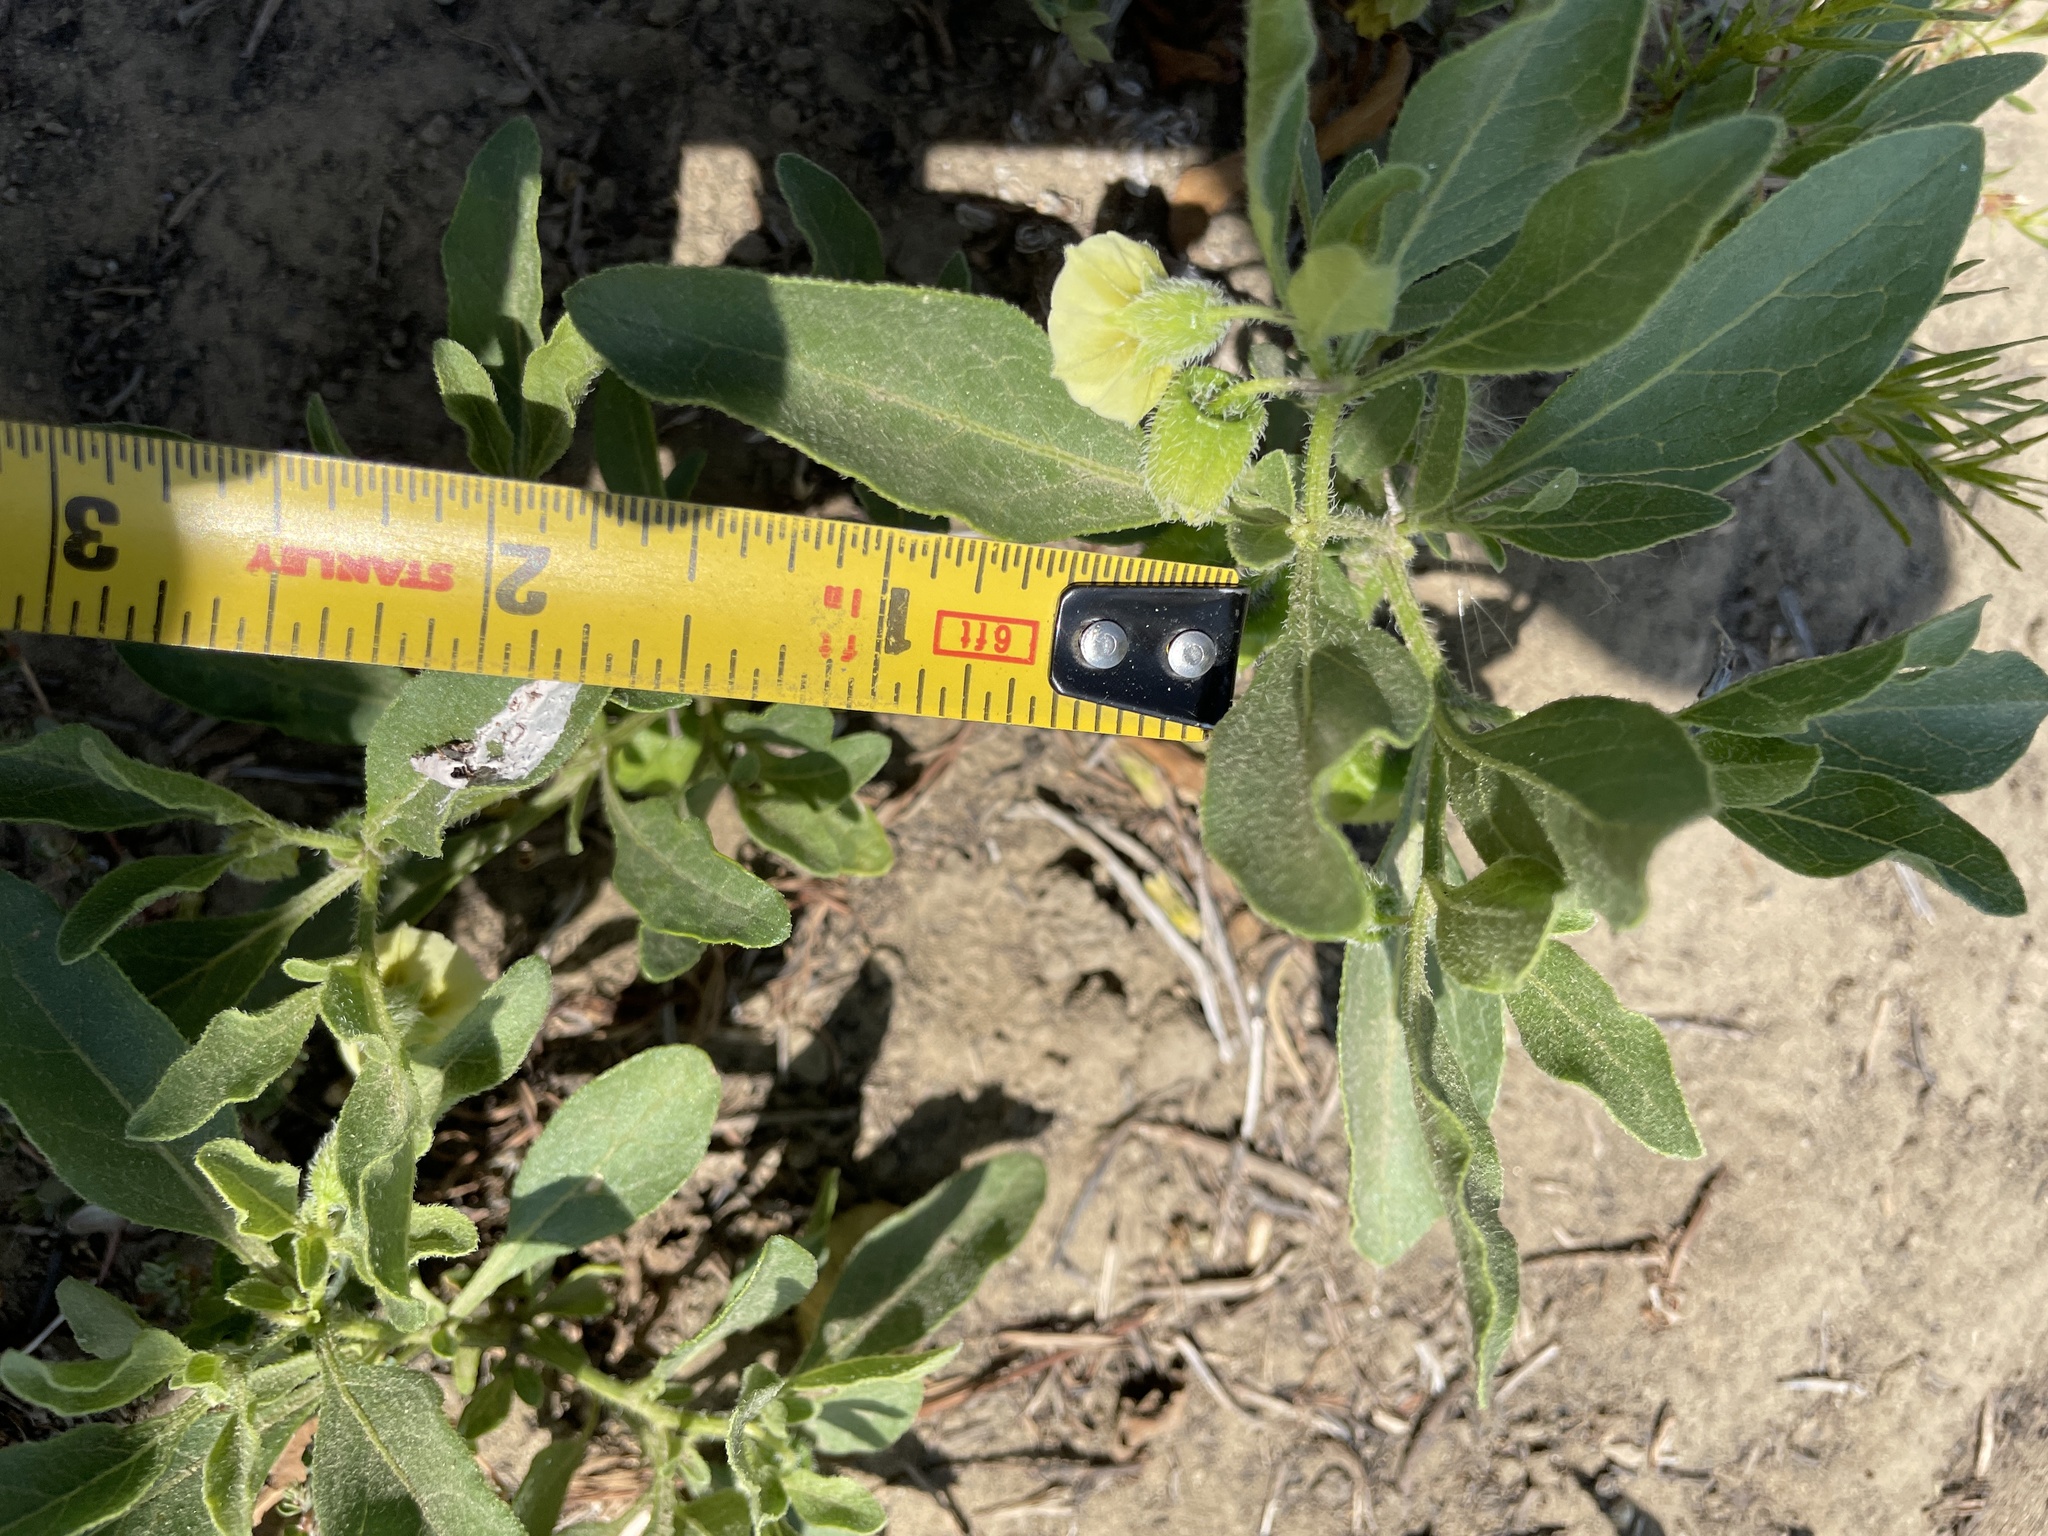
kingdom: Plantae
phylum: Tracheophyta
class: Magnoliopsida
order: Solanales
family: Solanaceae
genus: Physalis
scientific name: Physalis pumila
